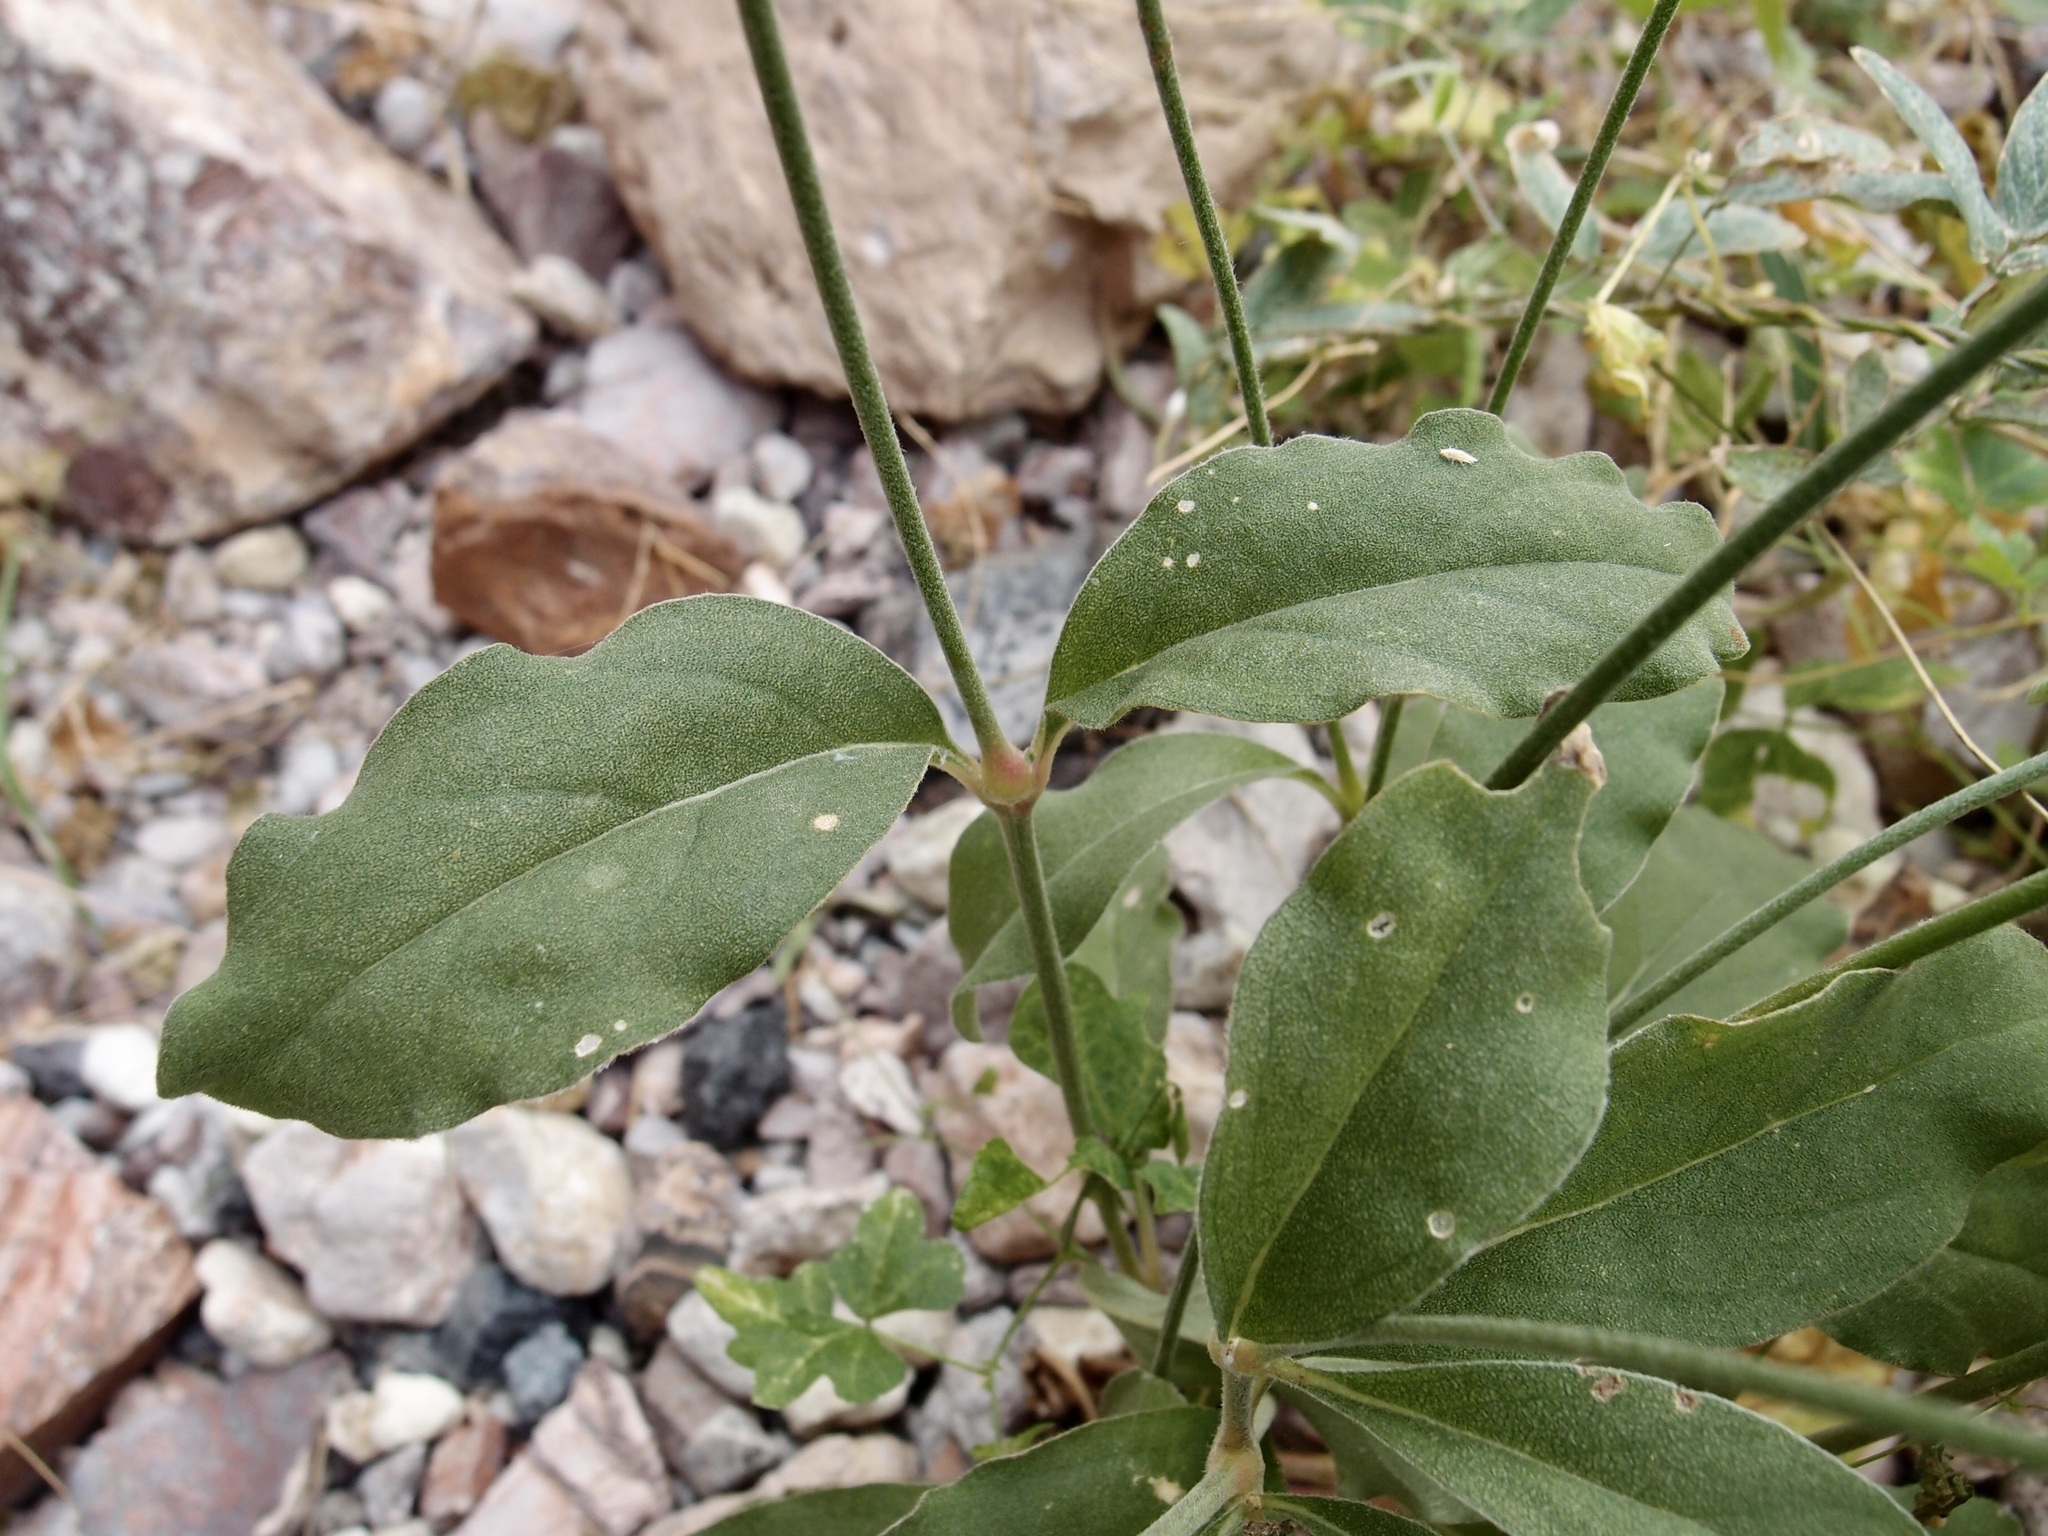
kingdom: Plantae
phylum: Tracheophyta
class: Magnoliopsida
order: Caryophyllales
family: Amaranthaceae
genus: Froelichia
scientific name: Froelichia interrupta
